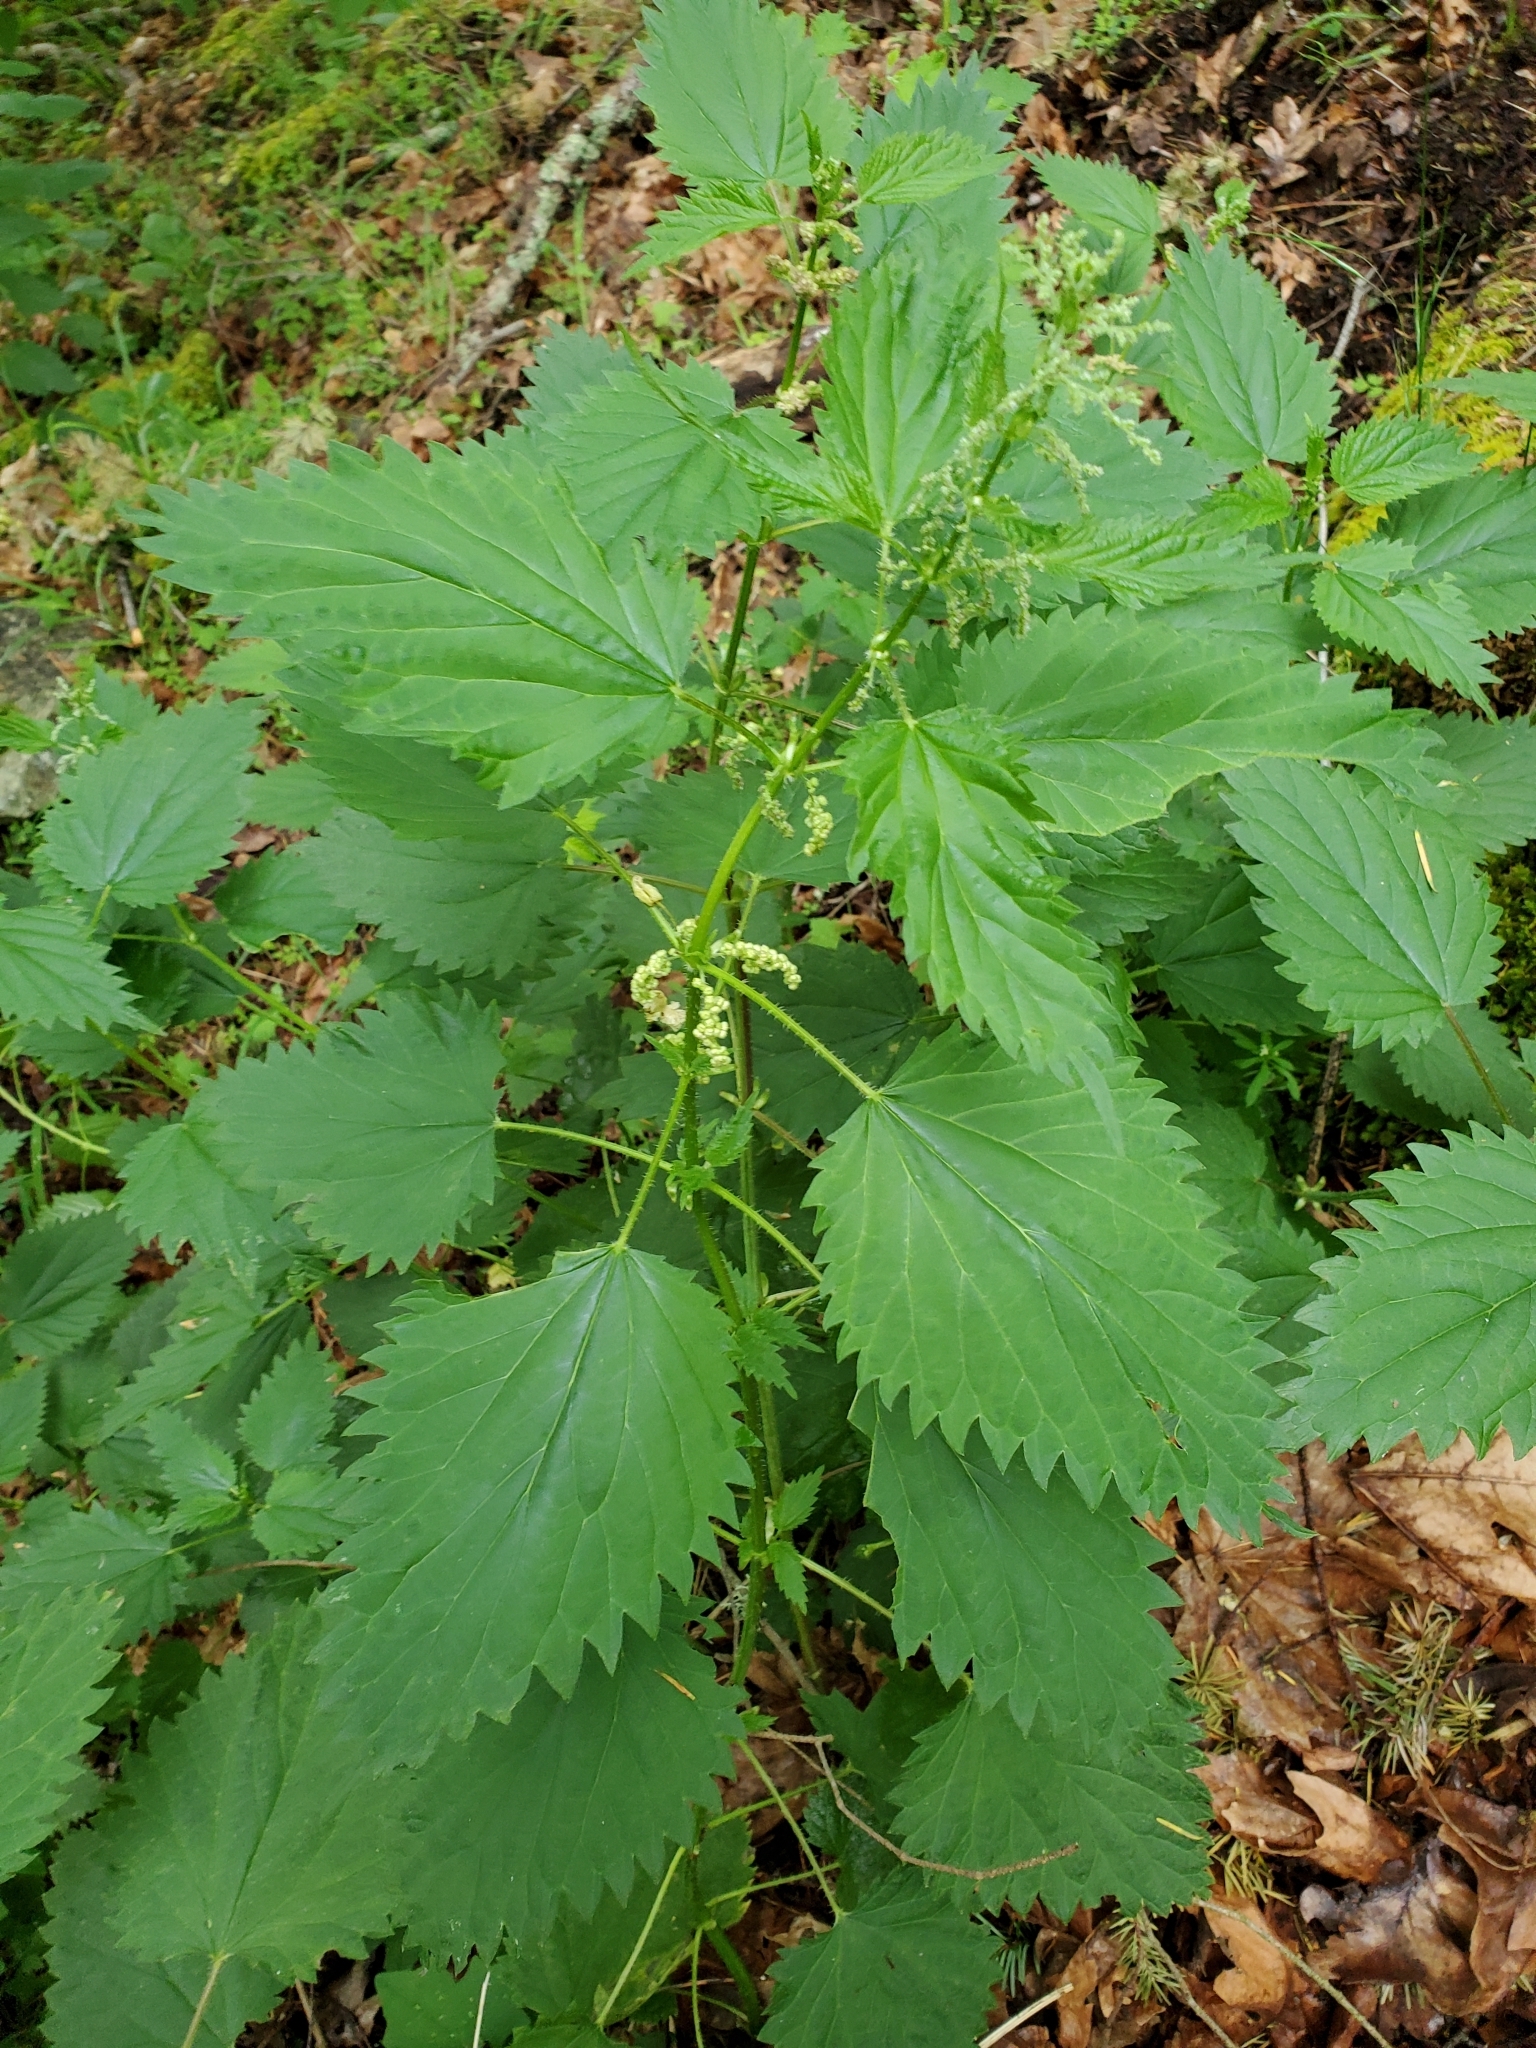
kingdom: Plantae
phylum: Tracheophyta
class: Magnoliopsida
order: Rosales
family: Urticaceae
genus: Urtica
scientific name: Urtica dioica
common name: Common nettle
